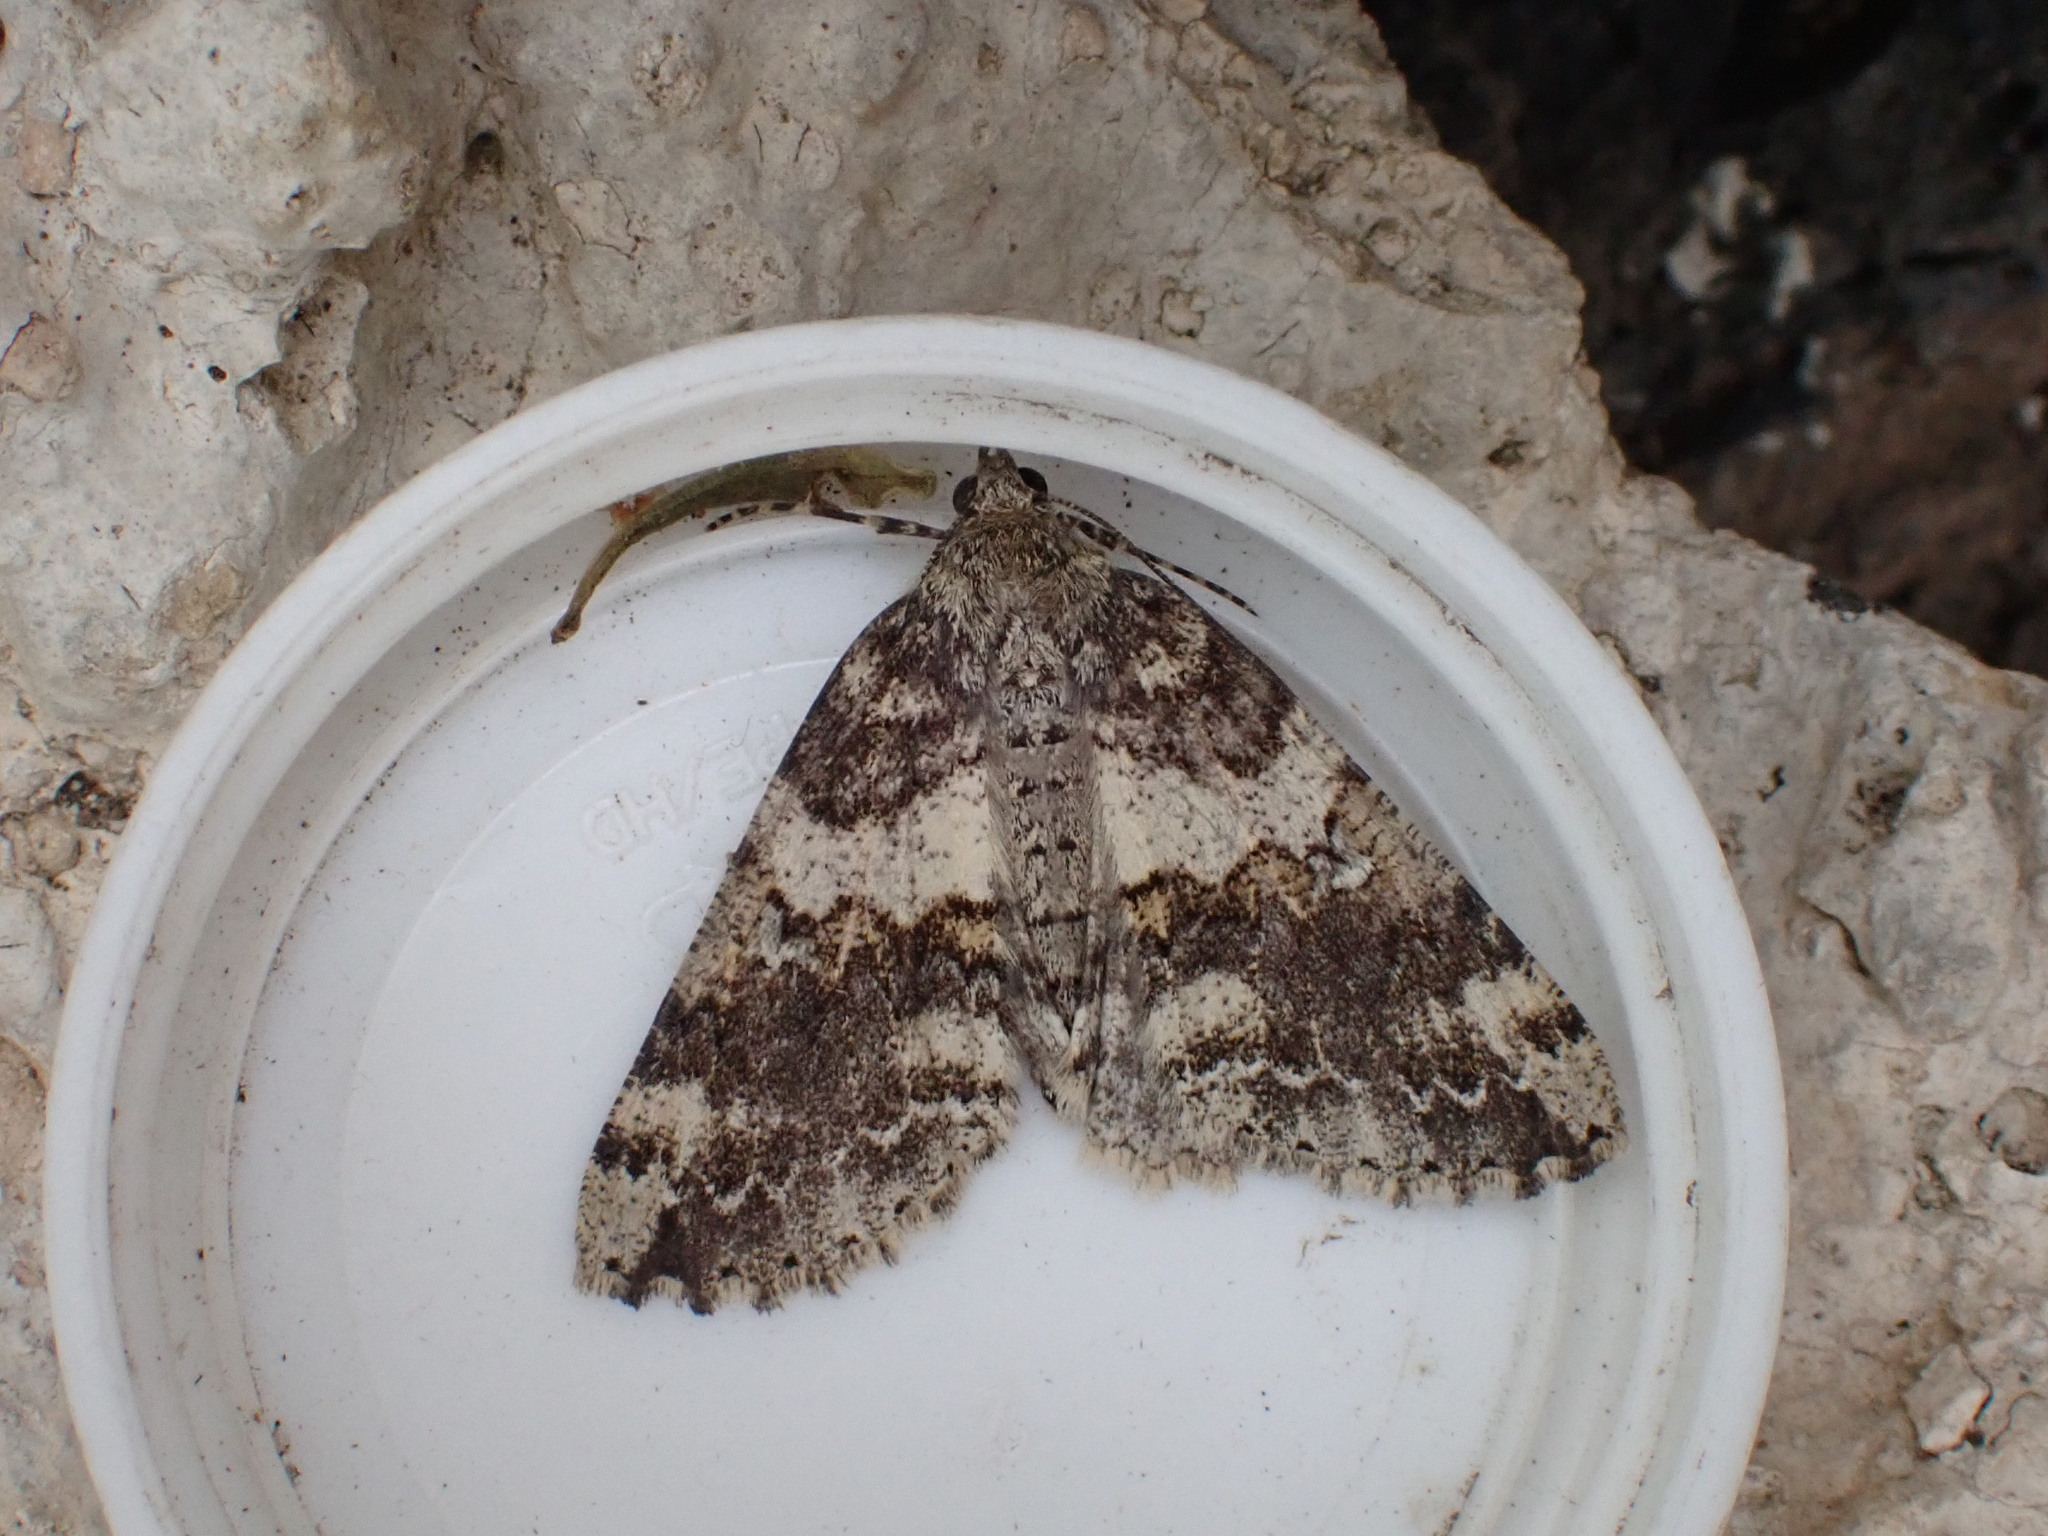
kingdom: Animalia
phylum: Arthropoda
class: Insecta
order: Lepidoptera
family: Geometridae
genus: Ascotis
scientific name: Ascotis fortunata
